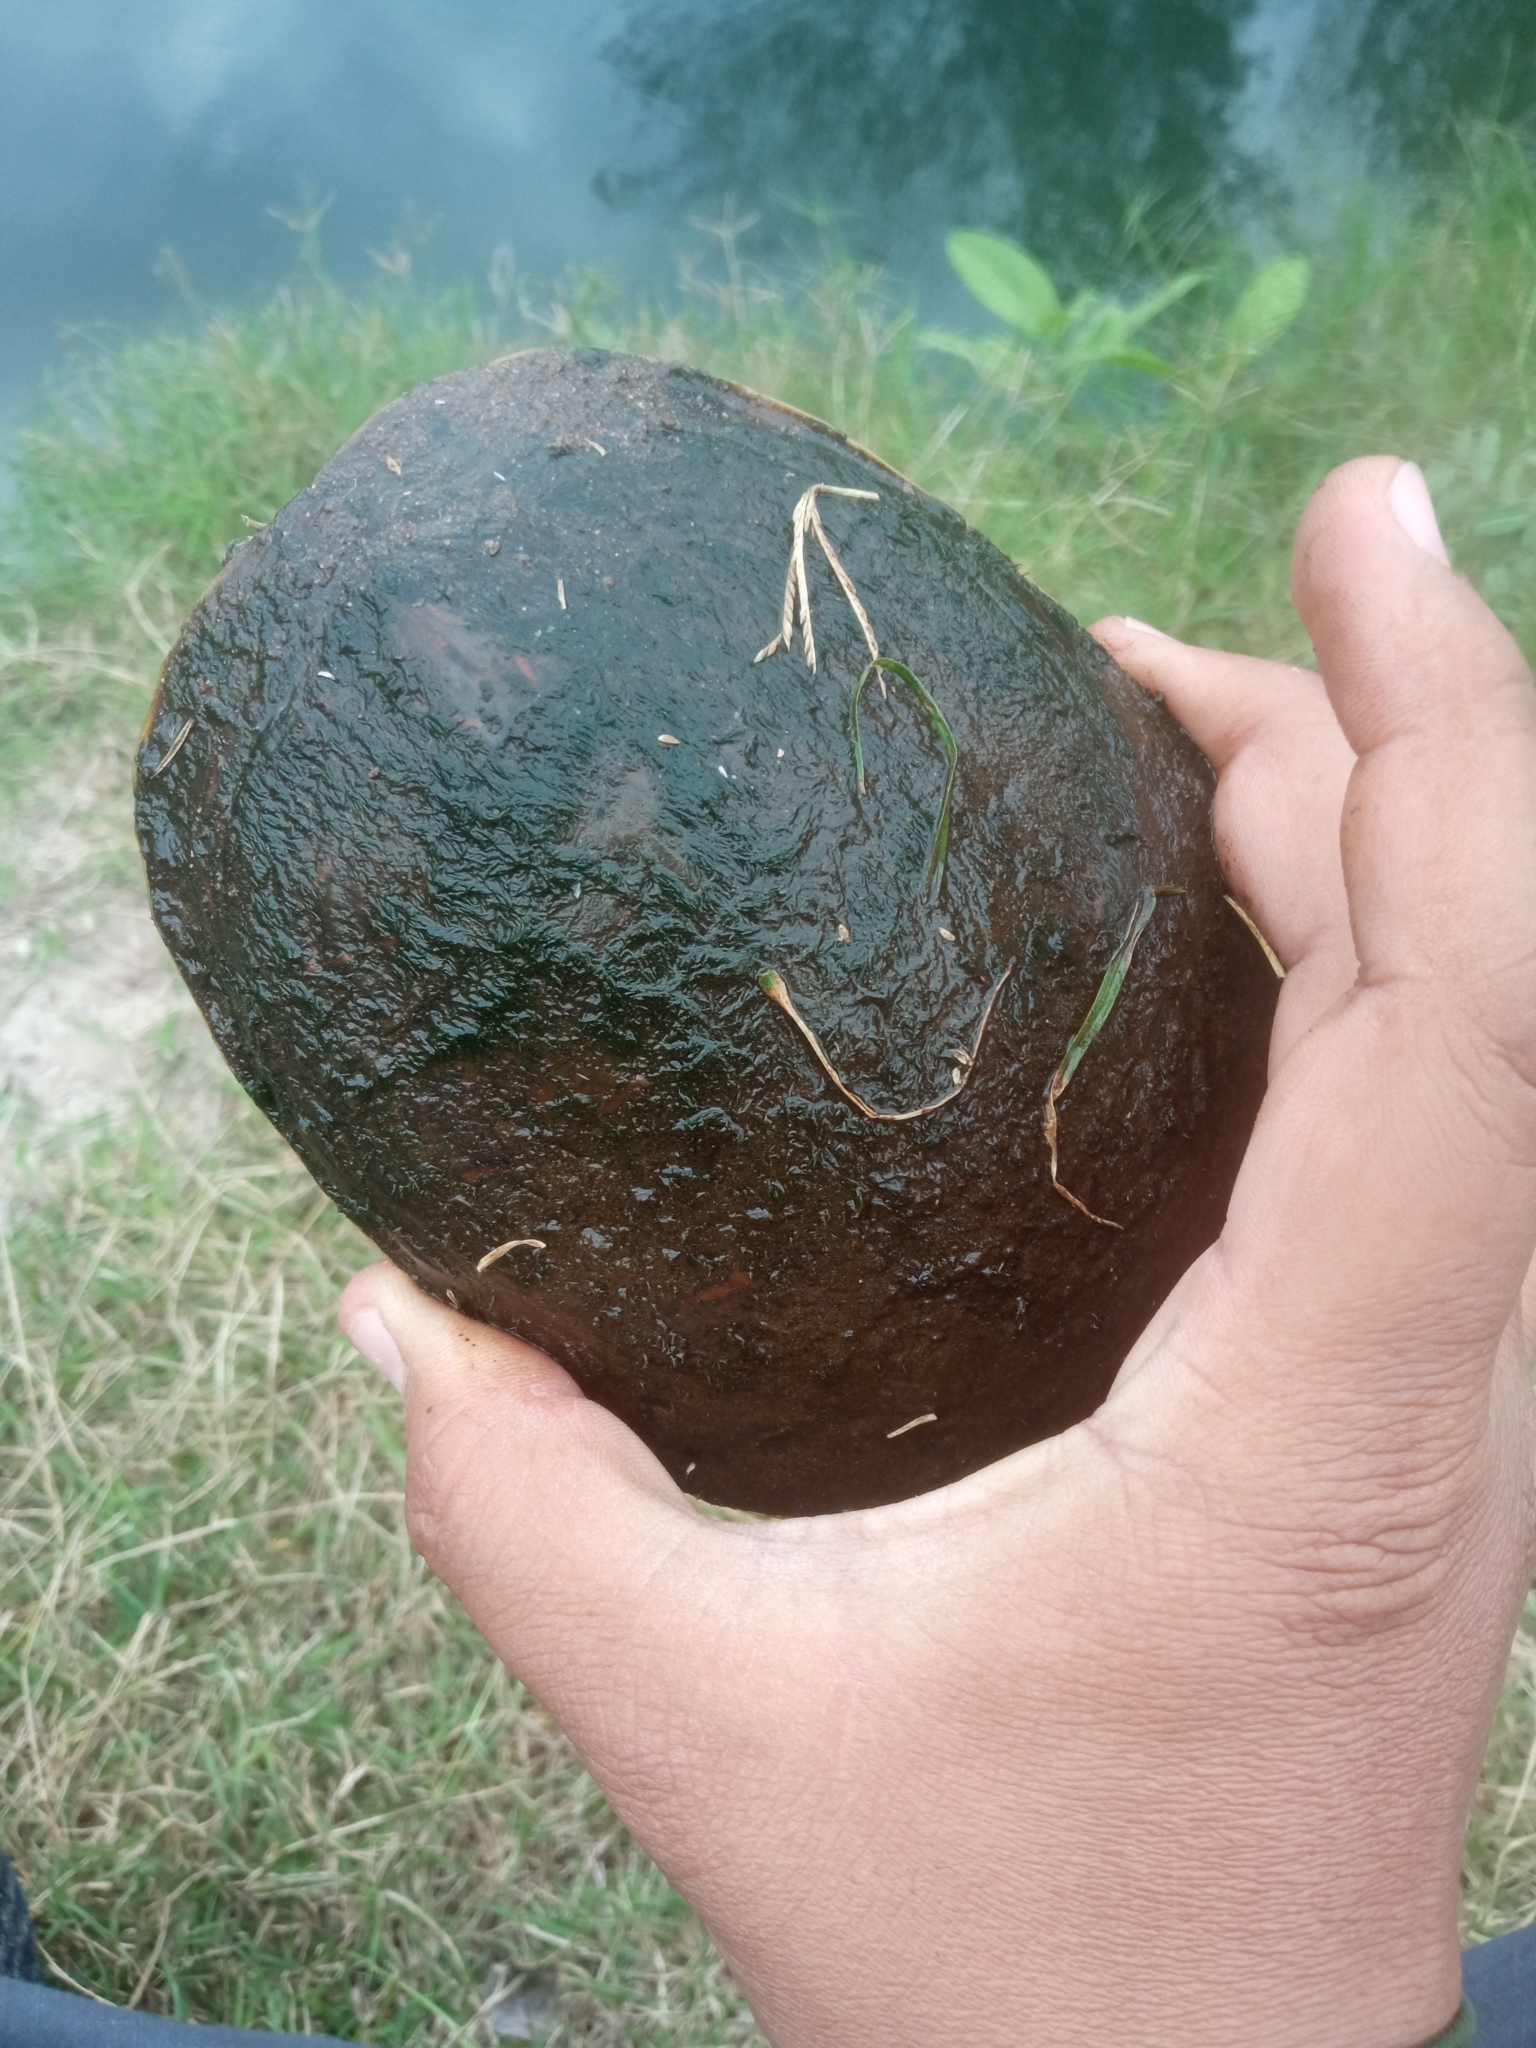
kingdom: Animalia
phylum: Chordata
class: Testudines
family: Emydidae
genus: Trachemys
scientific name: Trachemys nebulosa
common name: Baja california slider
